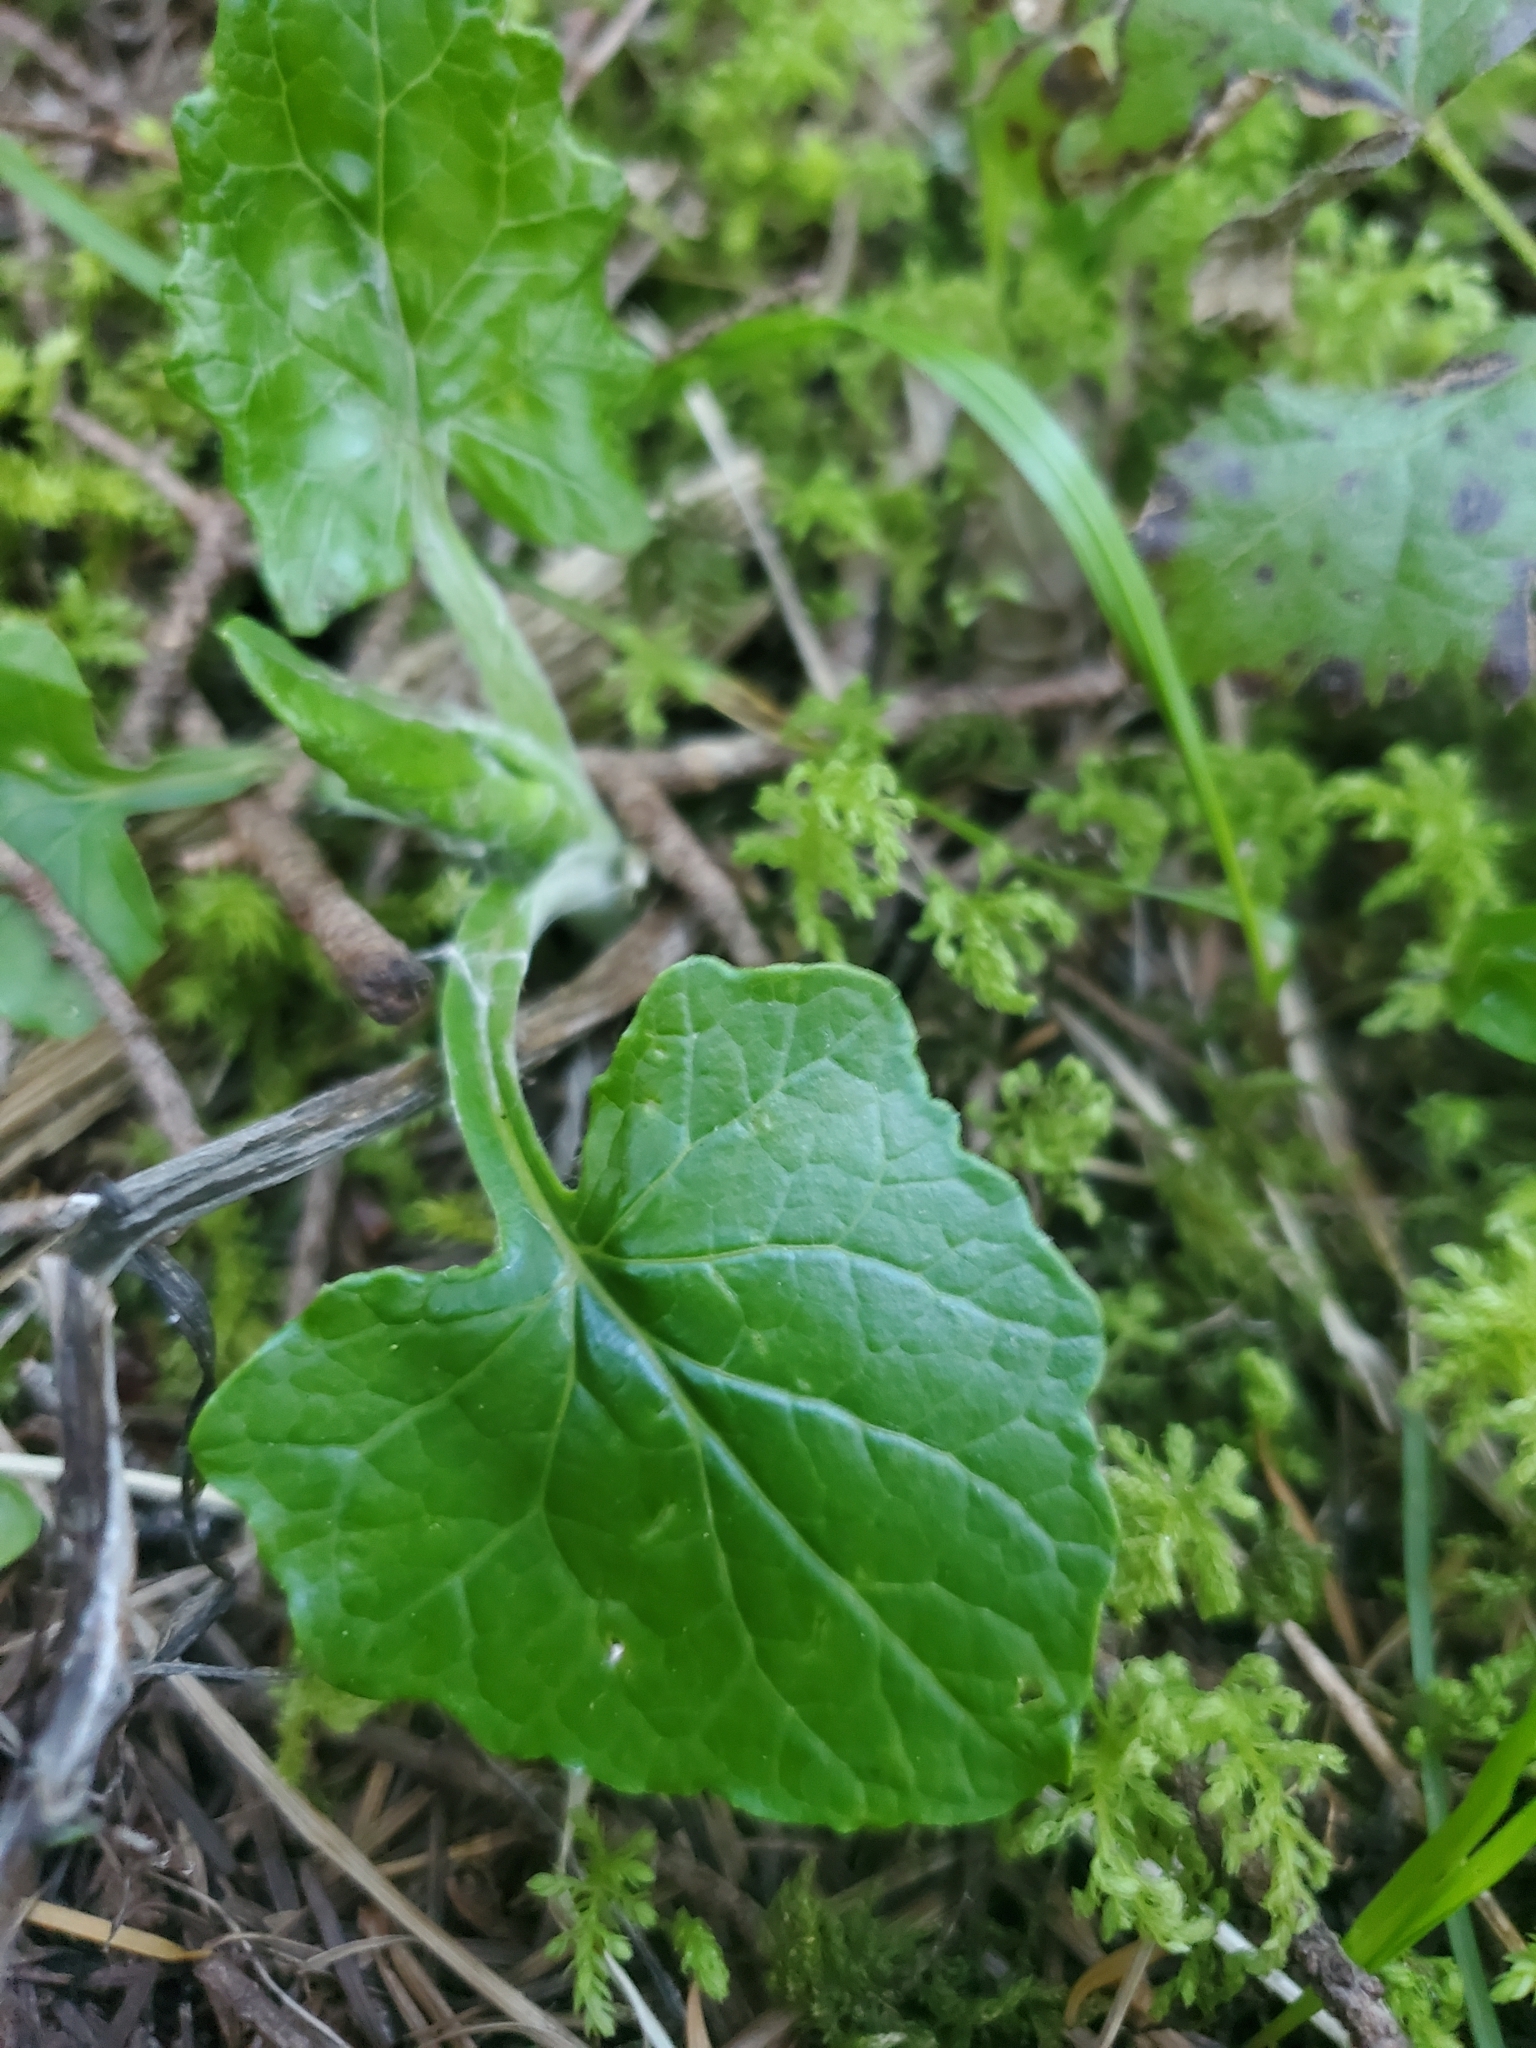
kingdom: Plantae
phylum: Tracheophyta
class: Magnoliopsida
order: Asterales
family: Asteraceae
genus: Adenocaulon
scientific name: Adenocaulon bicolor
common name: Trailplant
